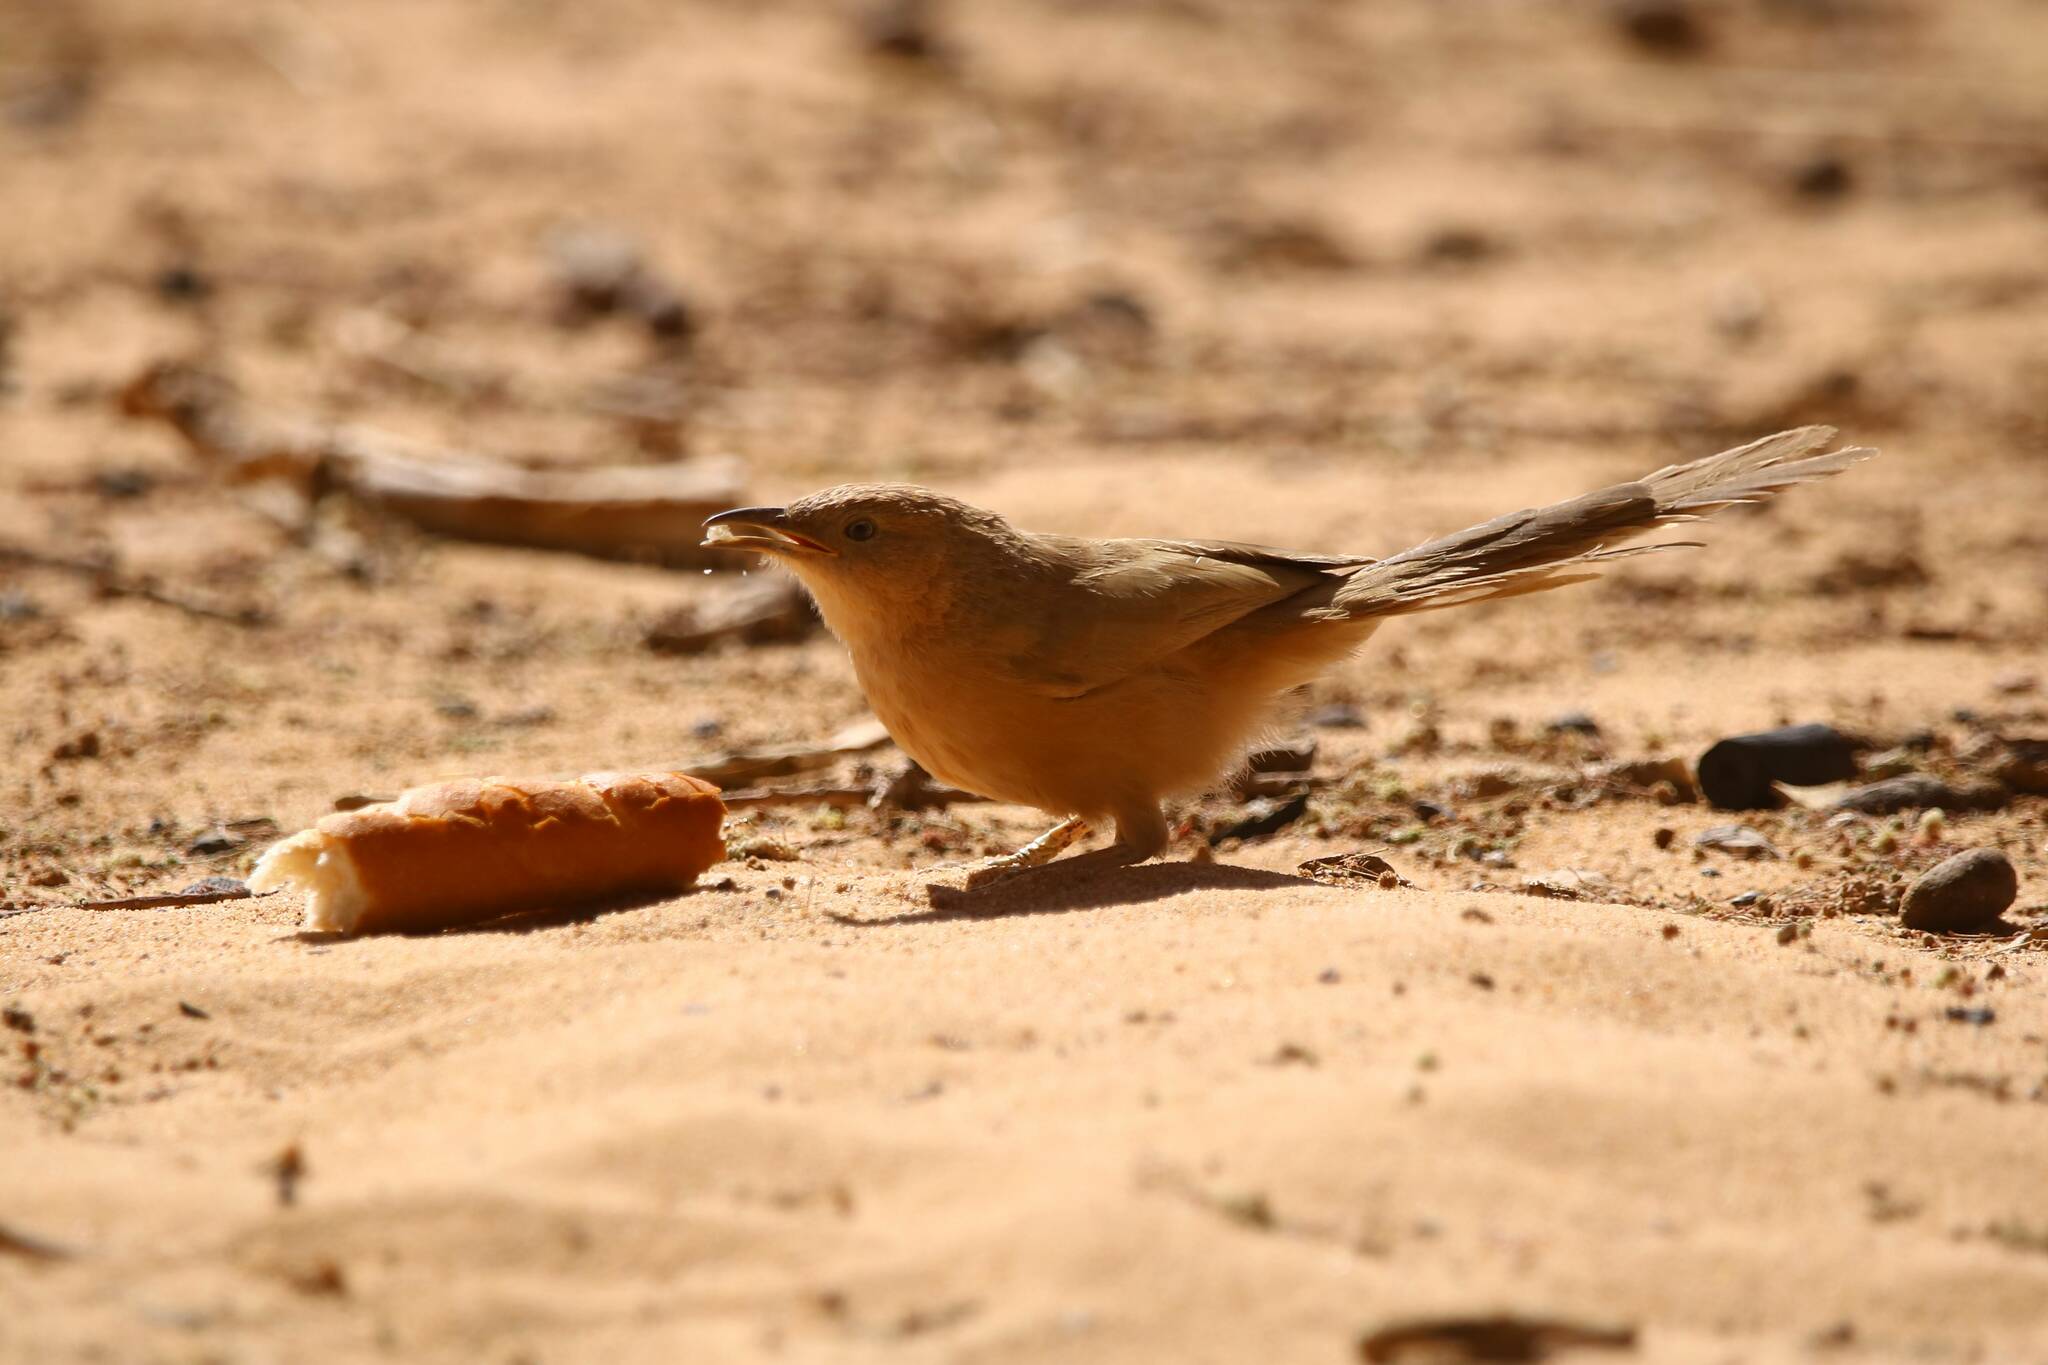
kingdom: Animalia
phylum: Chordata
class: Aves
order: Passeriformes
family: Leiothrichidae
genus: Turdoides
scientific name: Turdoides fulva
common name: Fulvous babbler
